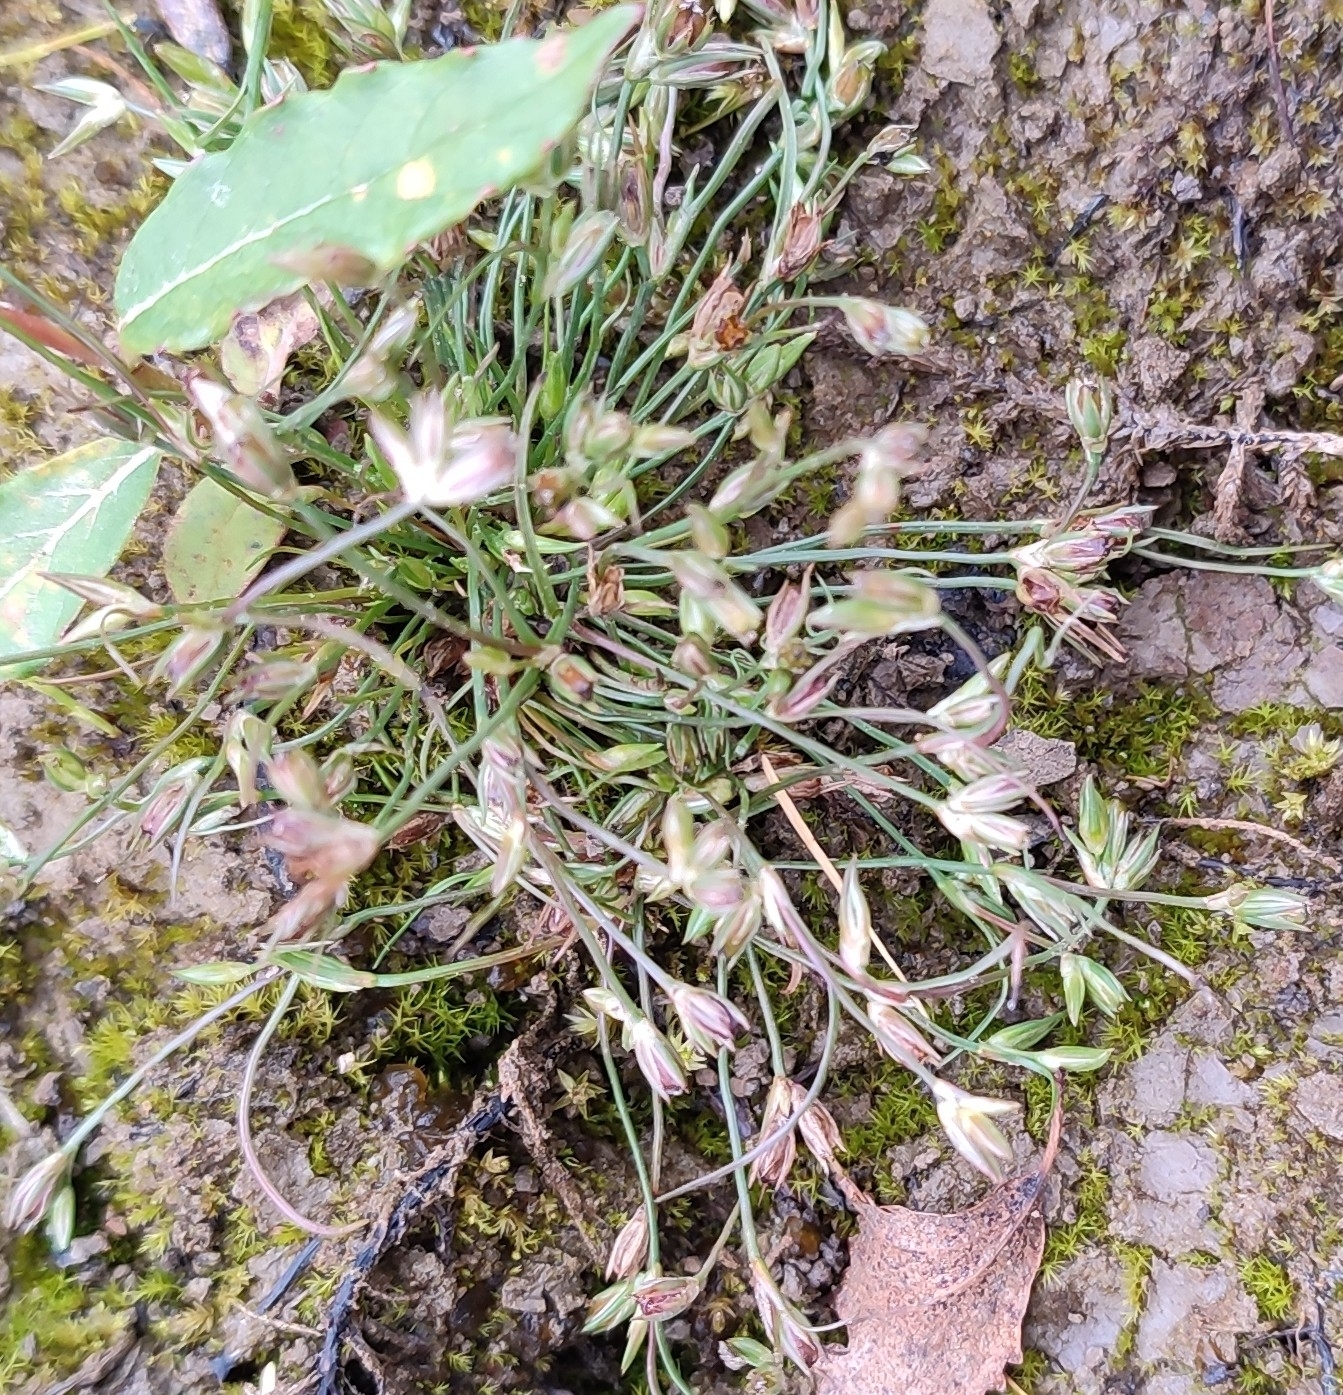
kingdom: Plantae
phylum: Tracheophyta
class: Liliopsida
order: Poales
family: Juncaceae
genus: Juncus
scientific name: Juncus bufonius
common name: Toad rush
